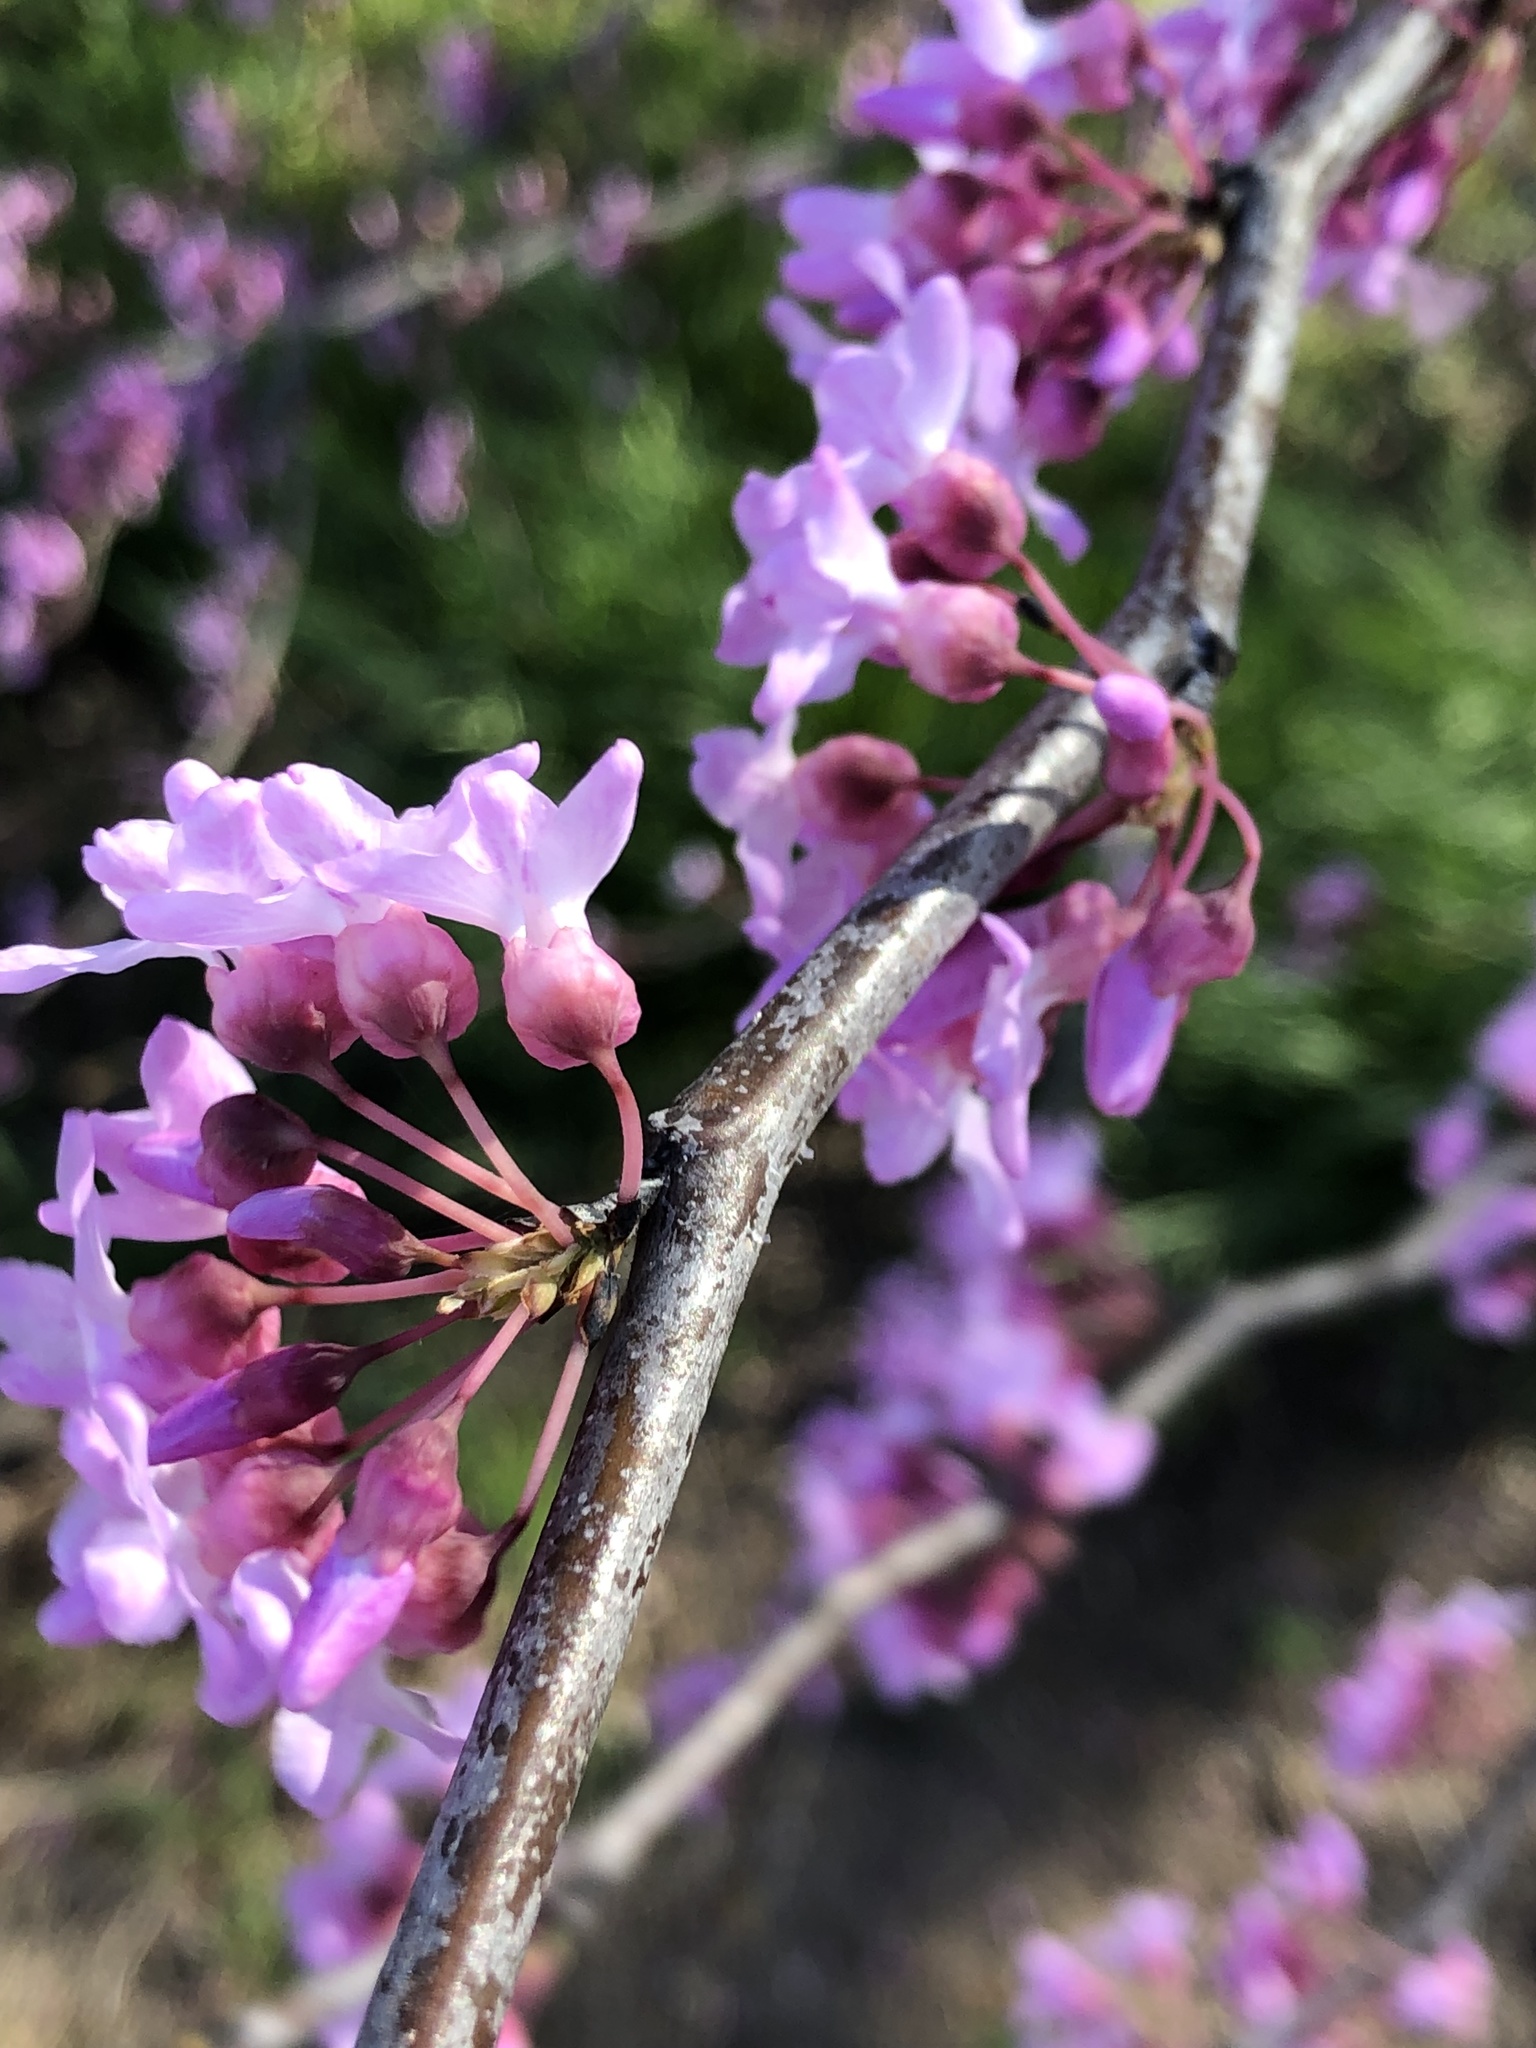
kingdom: Plantae
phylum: Tracheophyta
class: Magnoliopsida
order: Fabales
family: Fabaceae
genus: Cercis
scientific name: Cercis canadensis
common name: Eastern redbud
